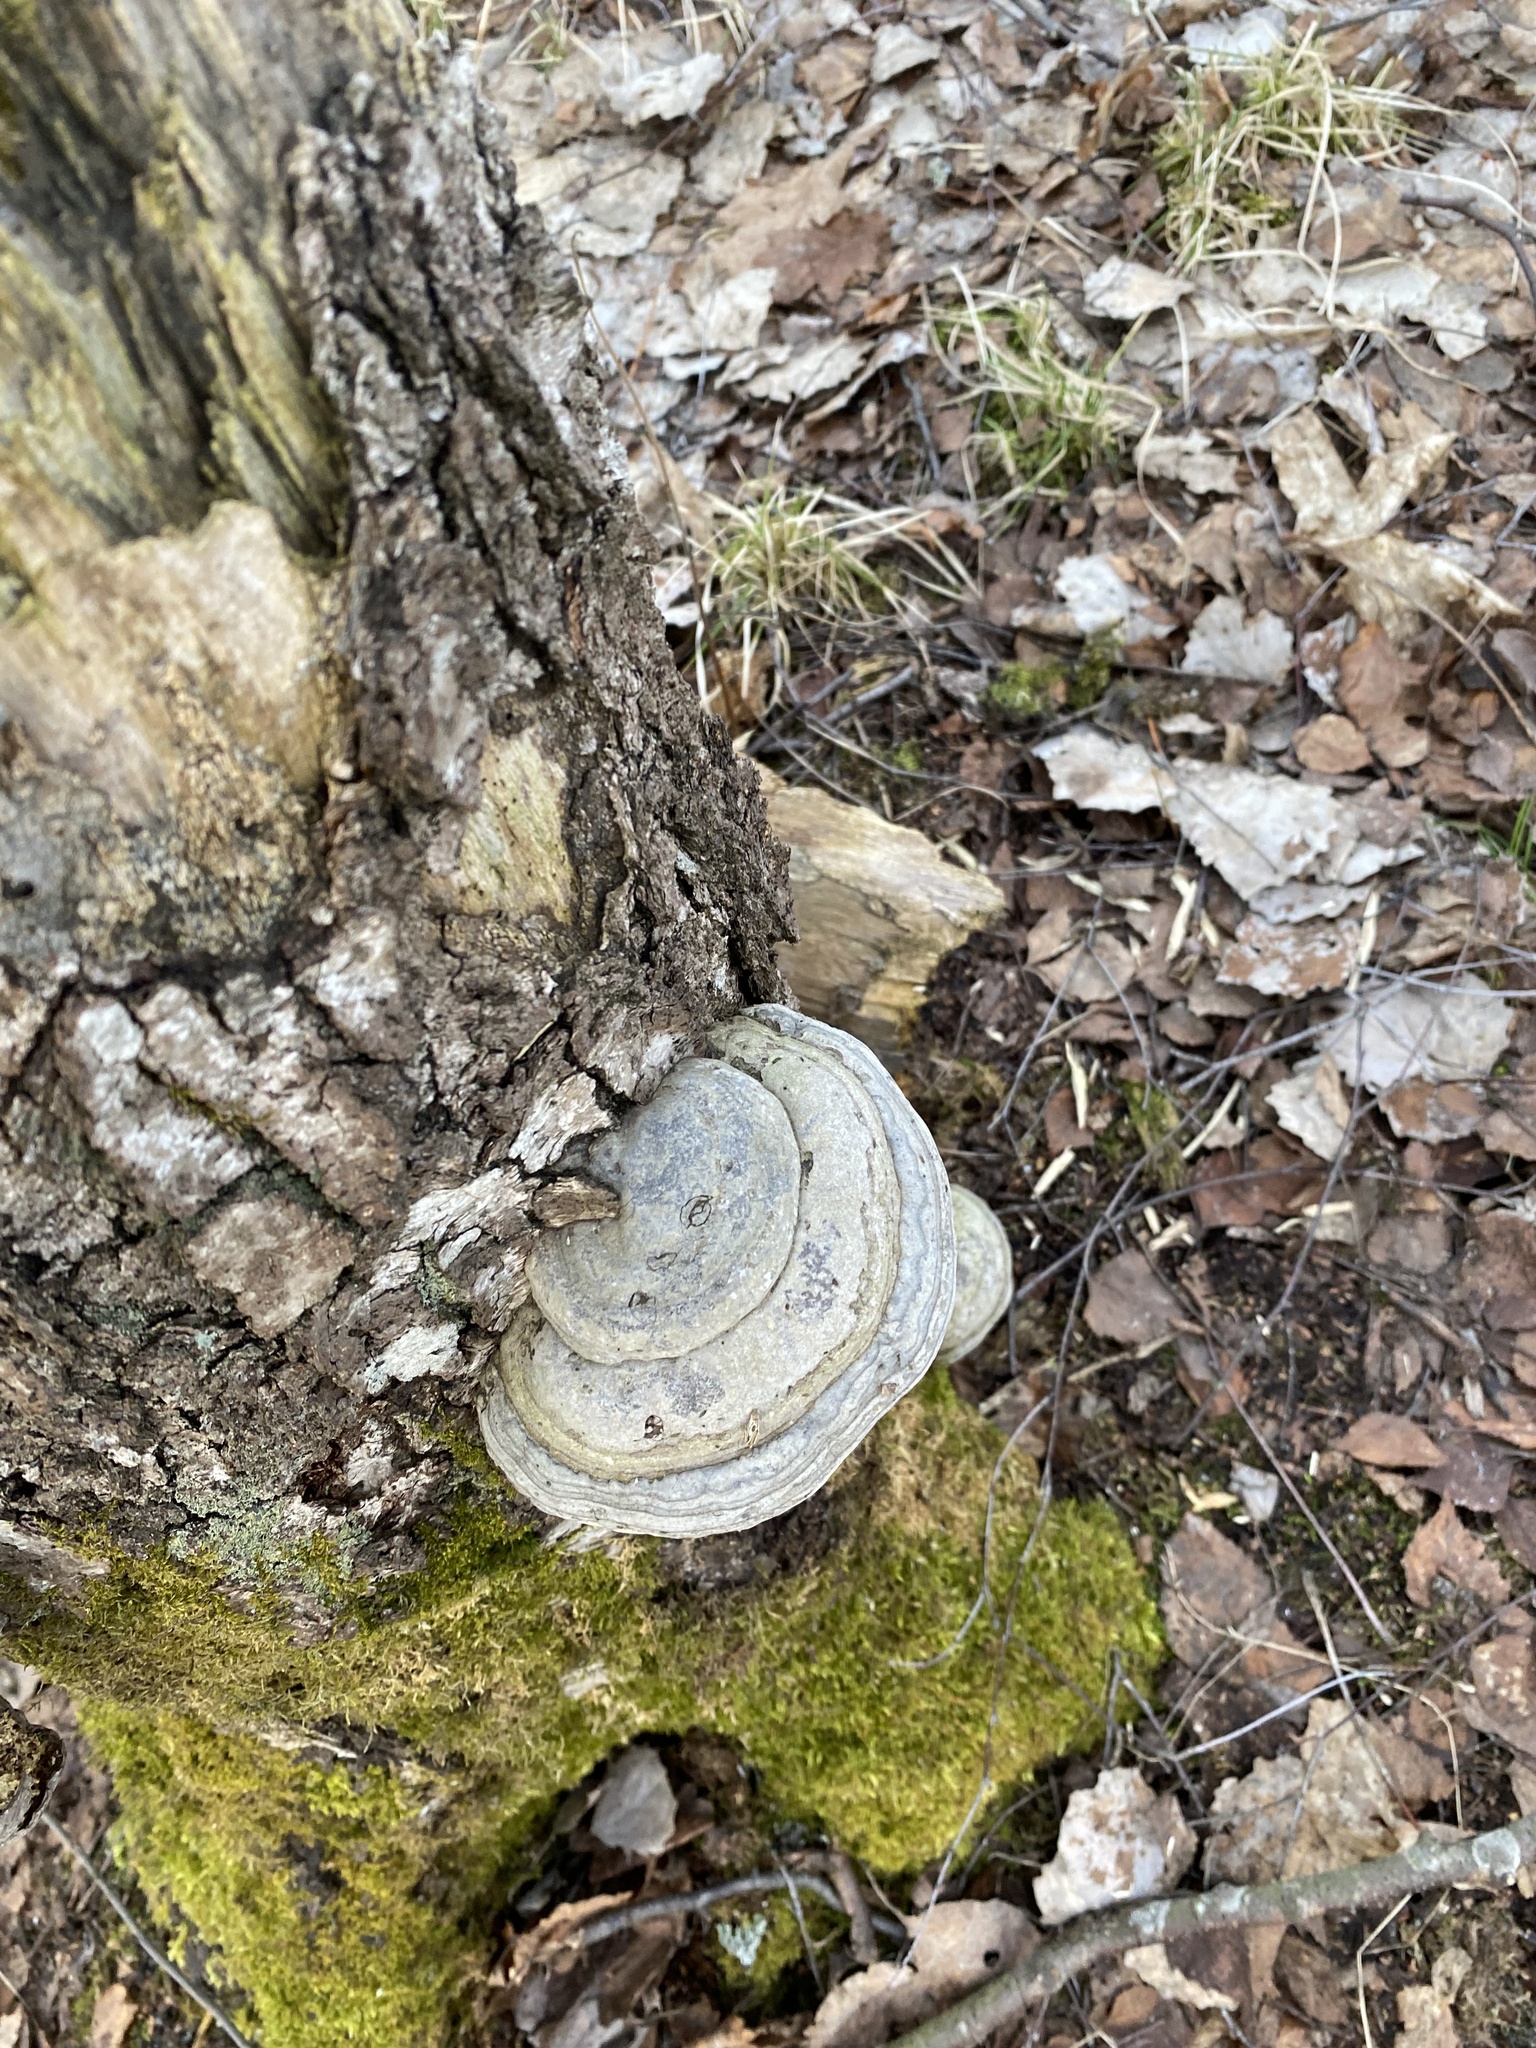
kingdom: Fungi
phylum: Basidiomycota
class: Agaricomycetes
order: Polyporales
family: Polyporaceae
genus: Fomes
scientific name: Fomes fomentarius
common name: Hoof fungus
